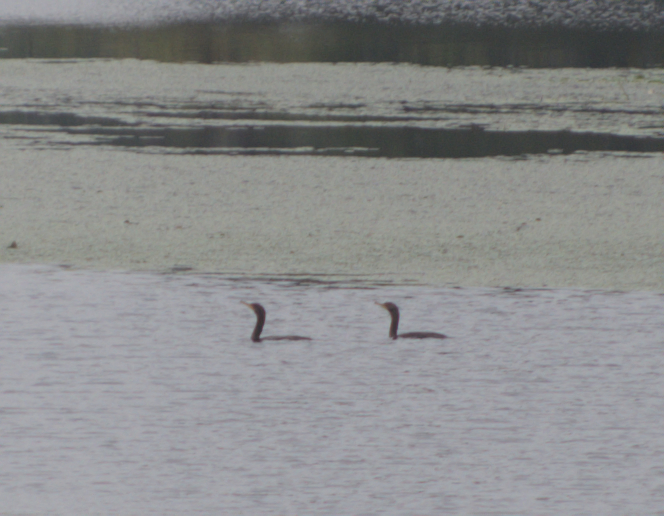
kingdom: Animalia
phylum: Chordata
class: Aves
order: Suliformes
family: Phalacrocoracidae
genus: Phalacrocorax
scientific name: Phalacrocorax auritus
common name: Double-crested cormorant
